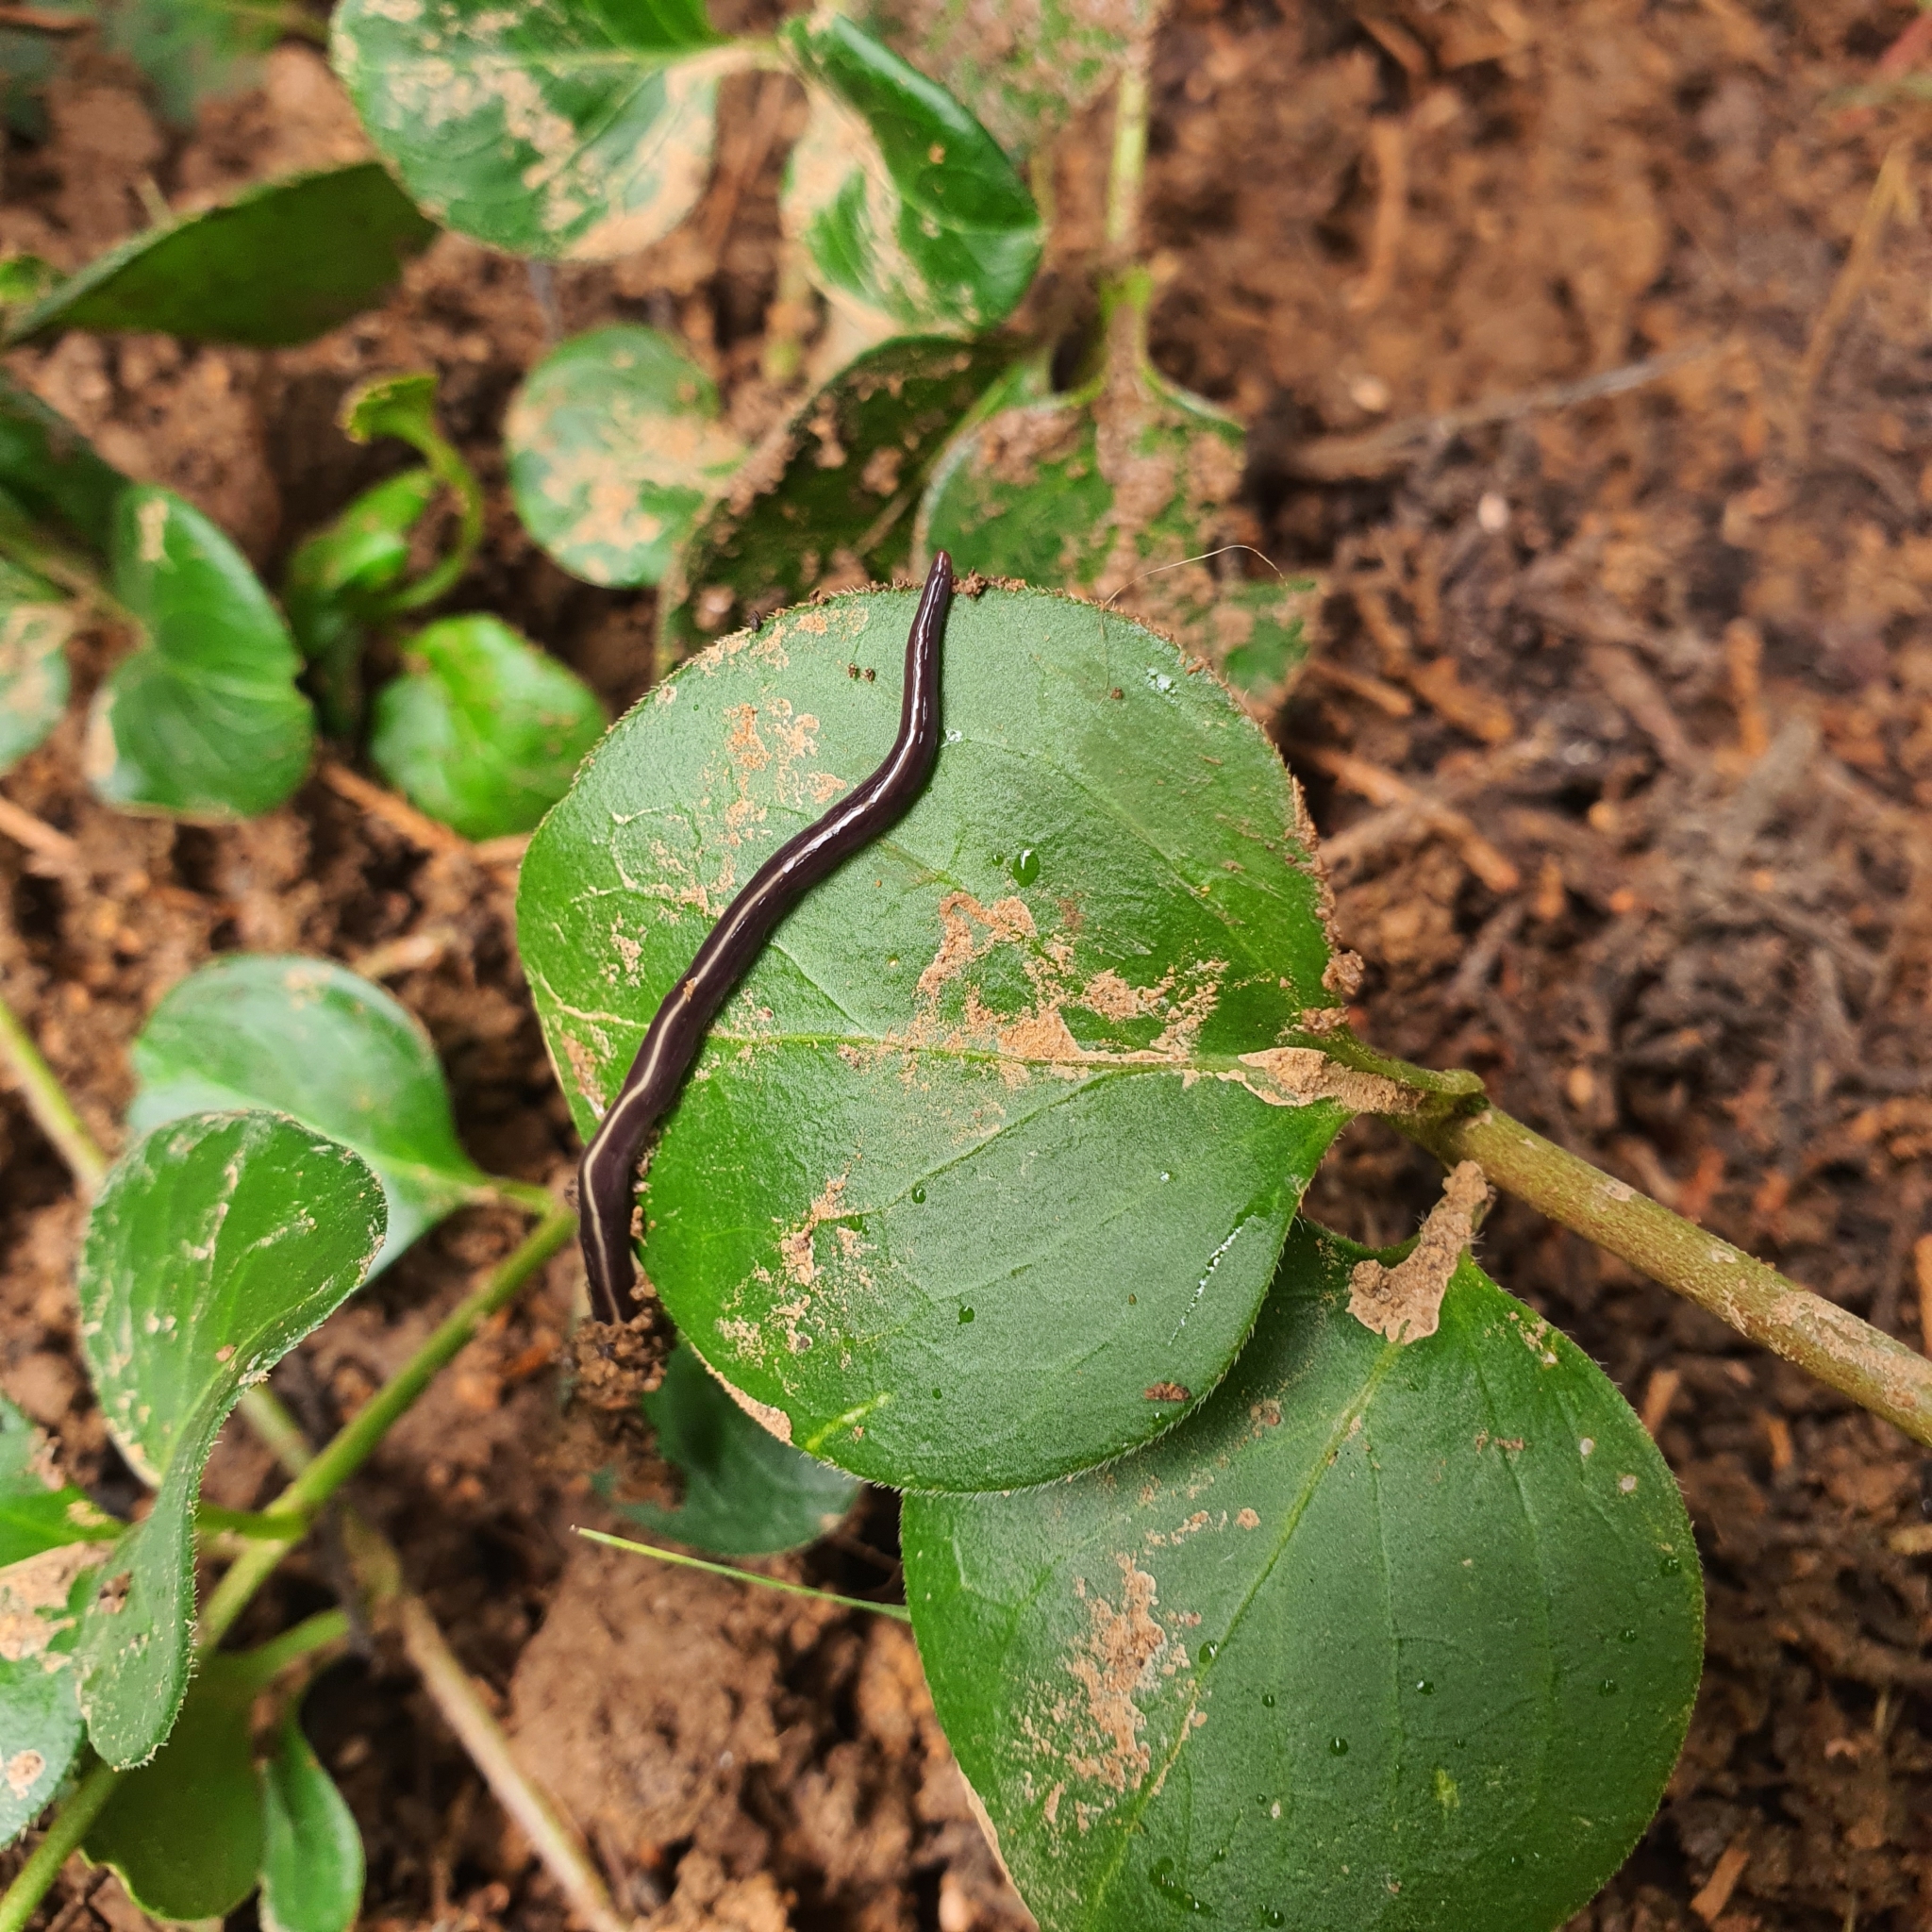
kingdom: Animalia
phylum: Platyhelminthes
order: Tricladida
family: Geoplanidae
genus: Caenoplana
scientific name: Caenoplana coerulea
